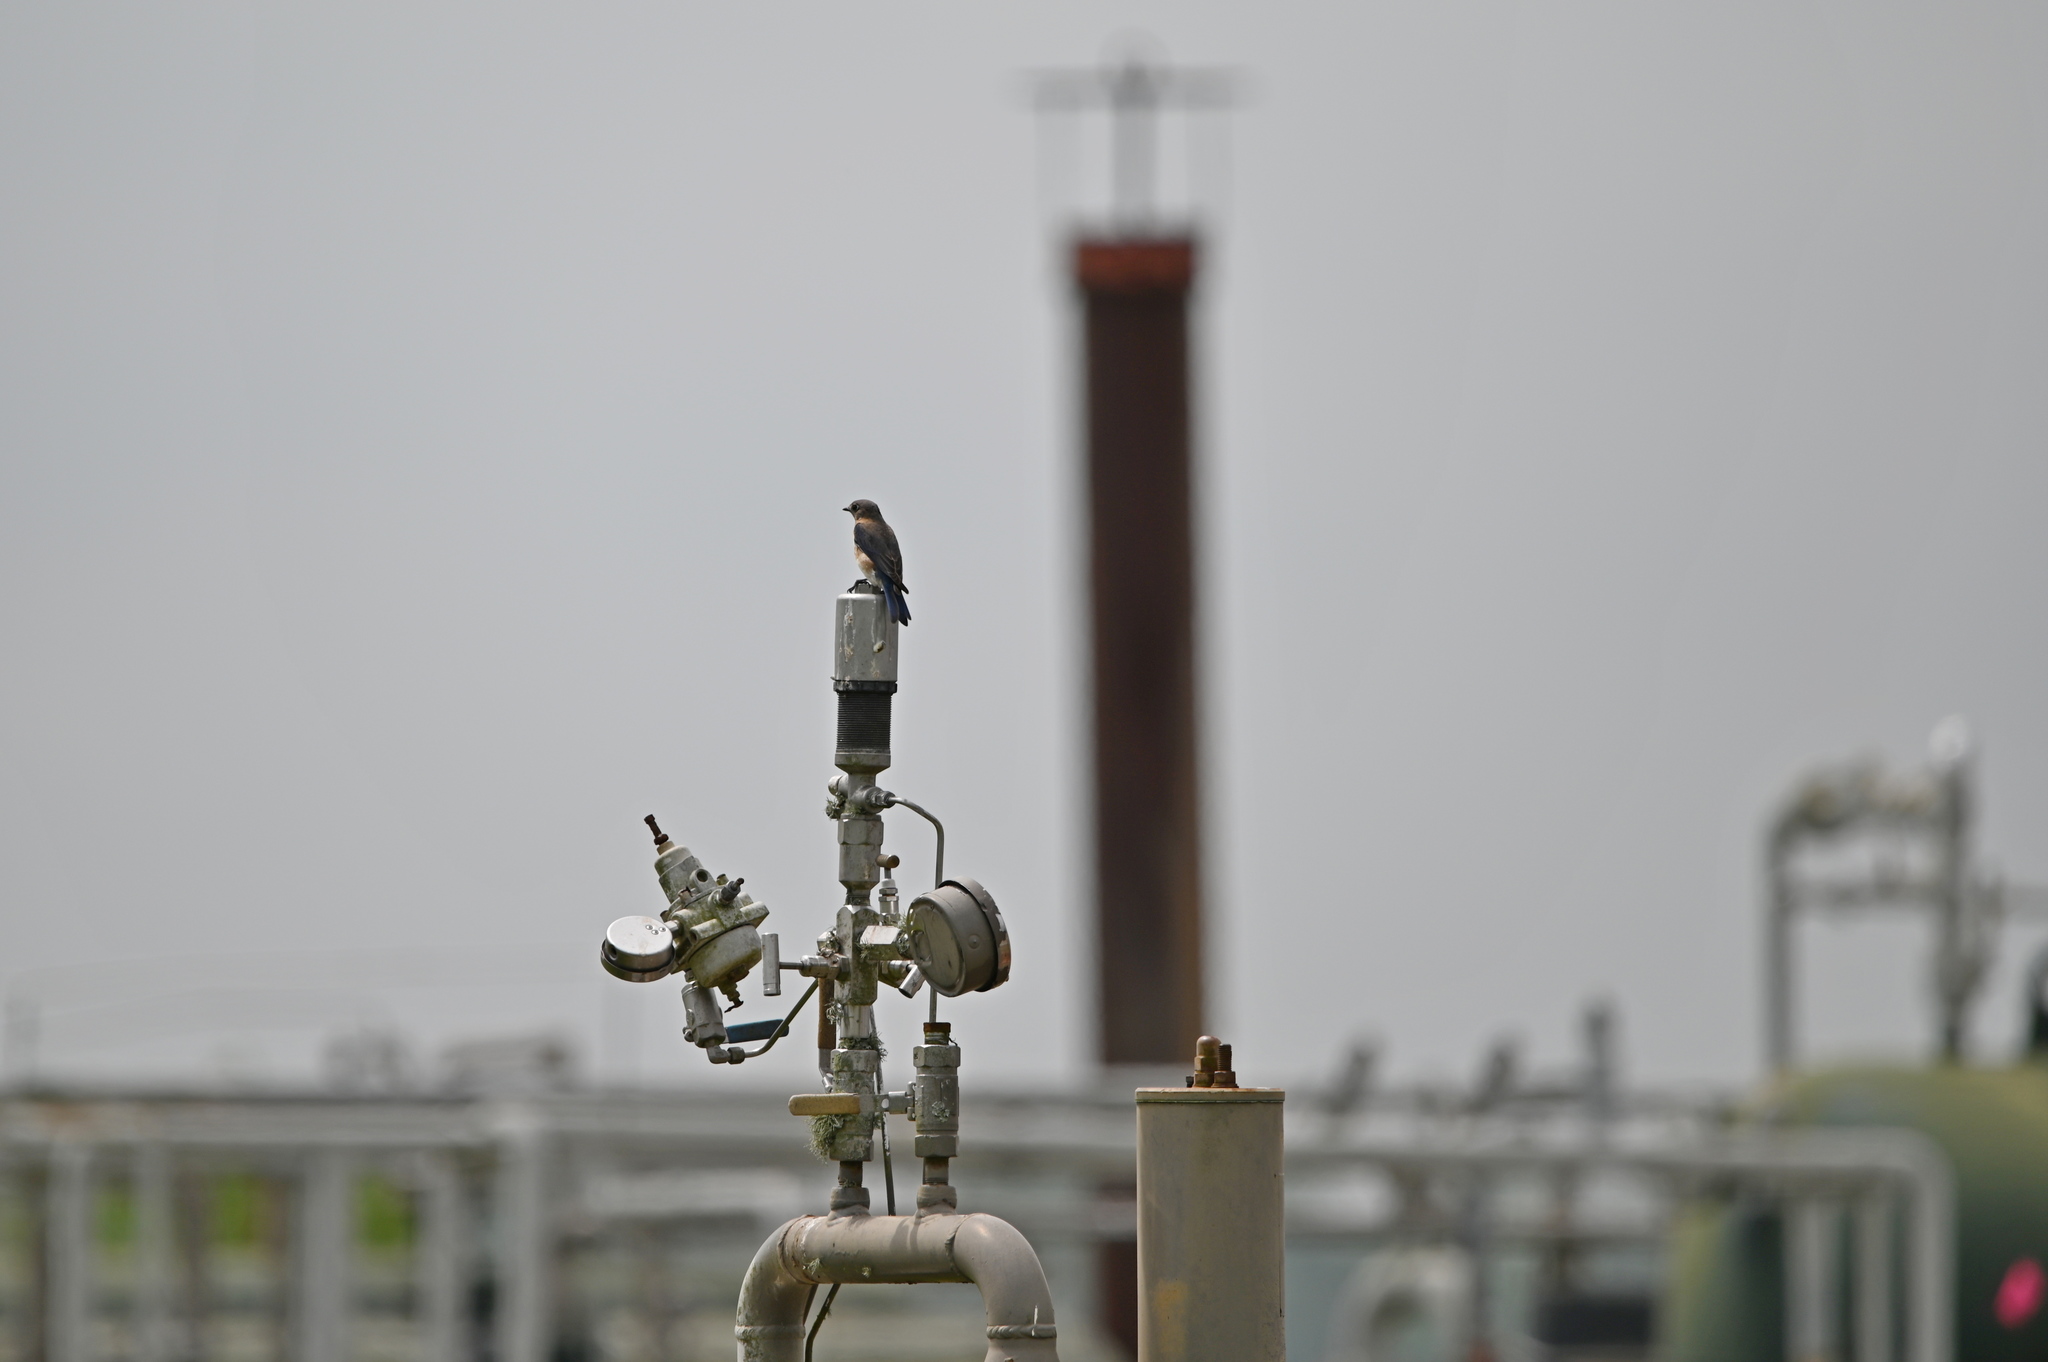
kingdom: Animalia
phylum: Chordata
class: Aves
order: Passeriformes
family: Turdidae
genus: Sialia
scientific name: Sialia sialis
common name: Eastern bluebird
